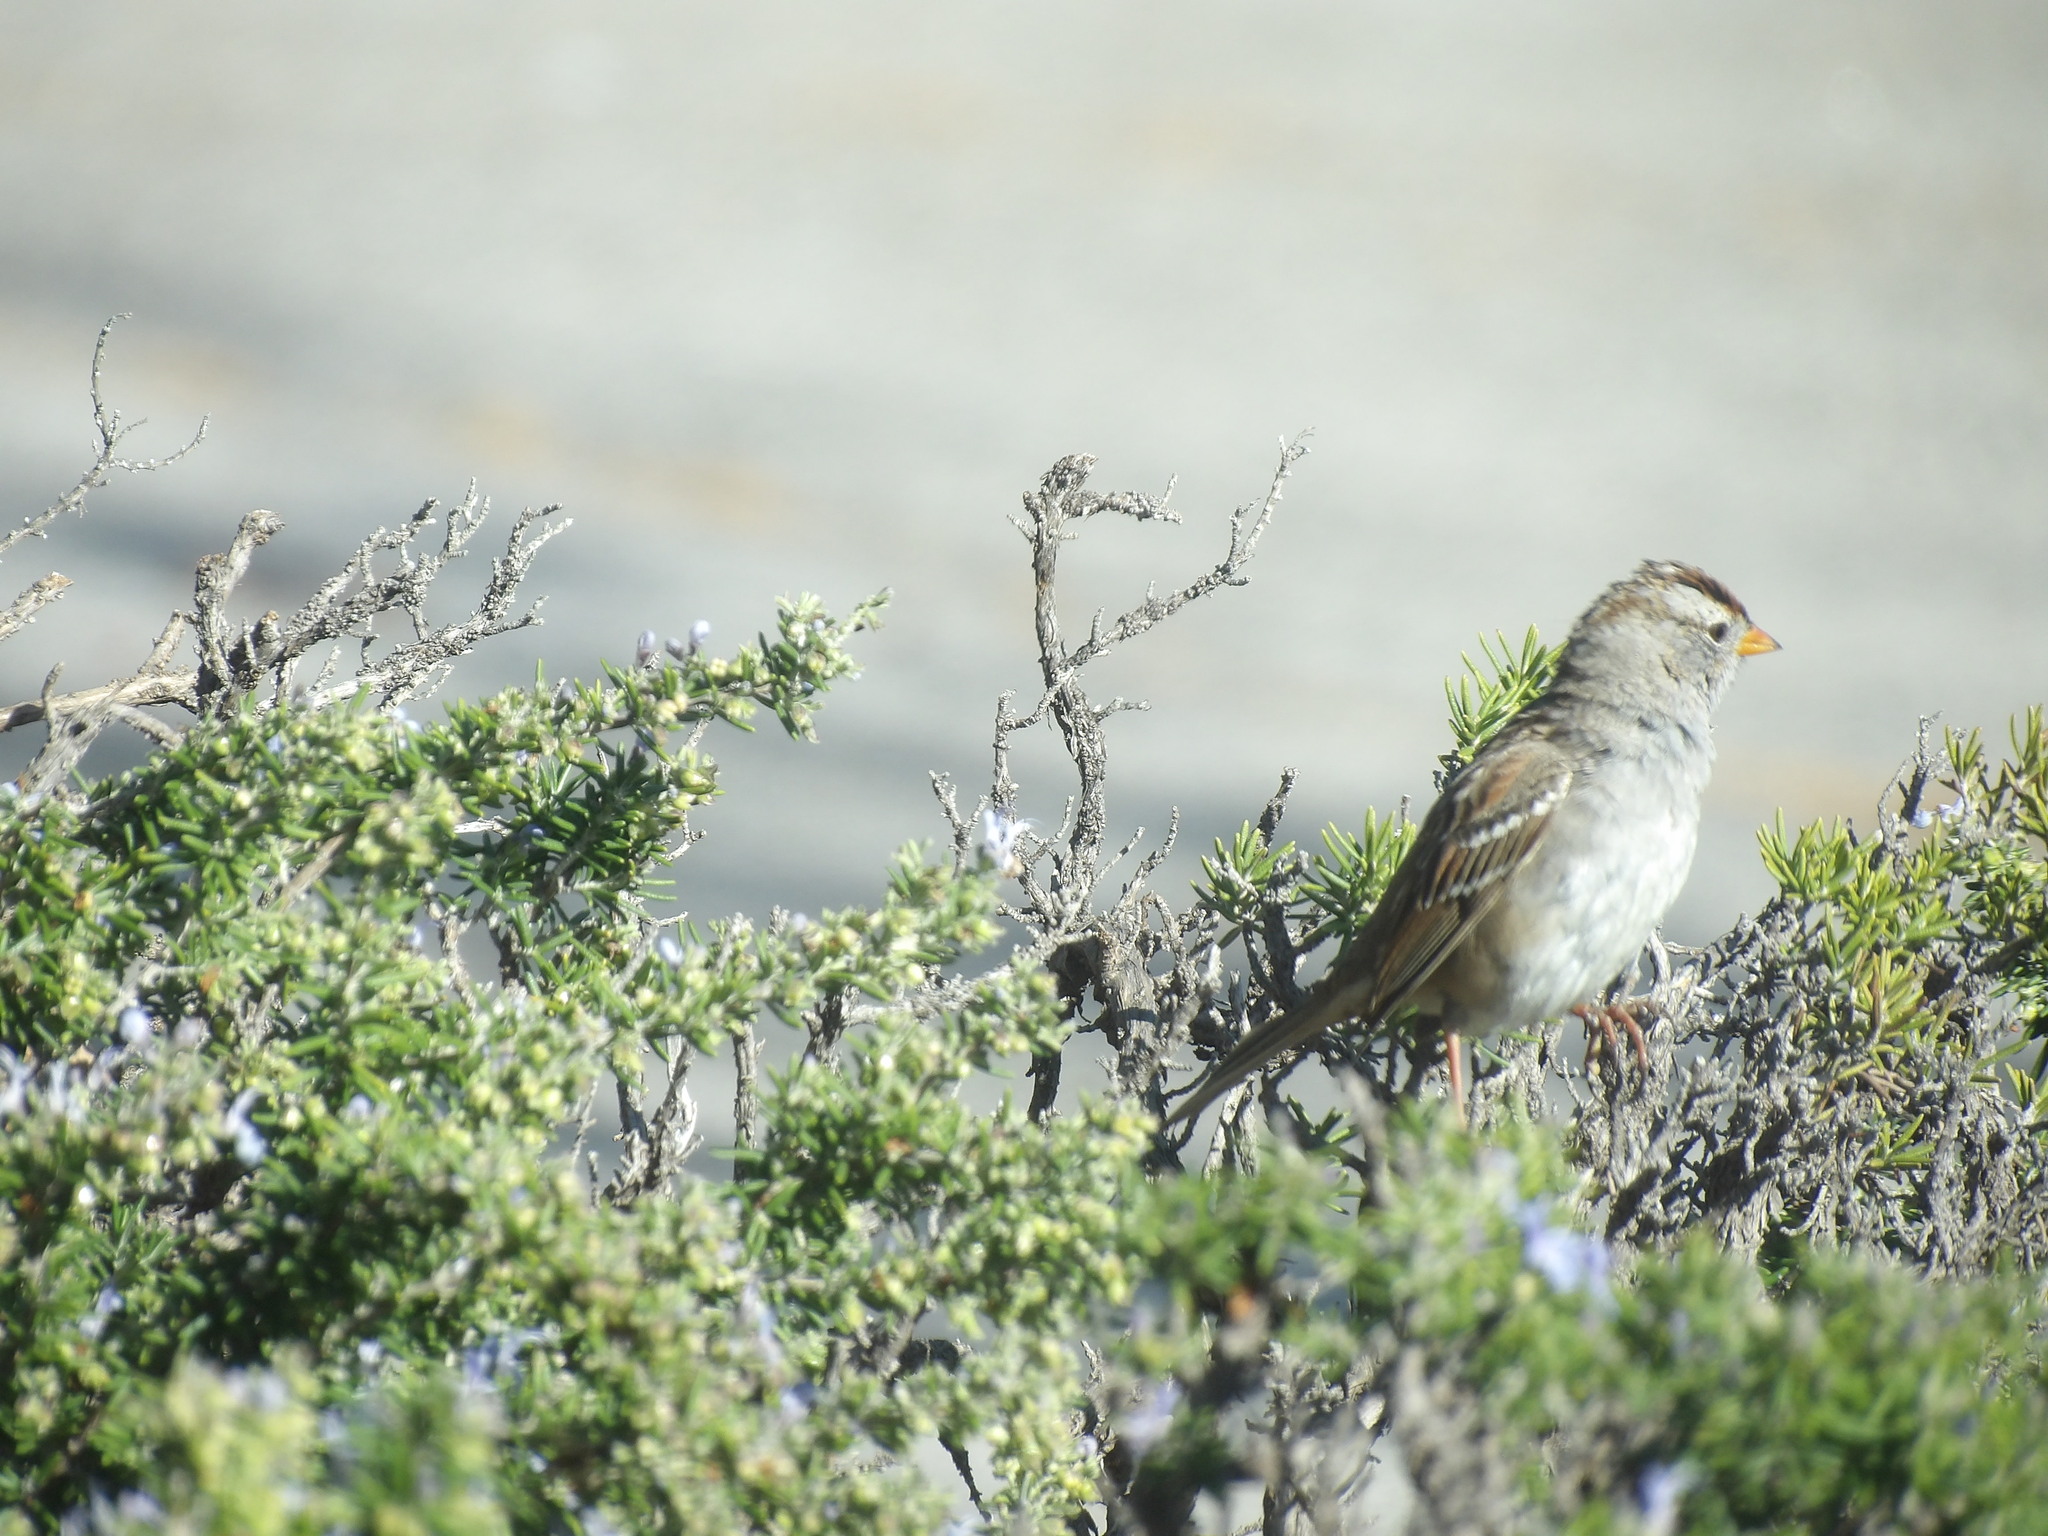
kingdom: Animalia
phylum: Chordata
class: Aves
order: Passeriformes
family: Passerellidae
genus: Zonotrichia
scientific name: Zonotrichia leucophrys
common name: White-crowned sparrow
